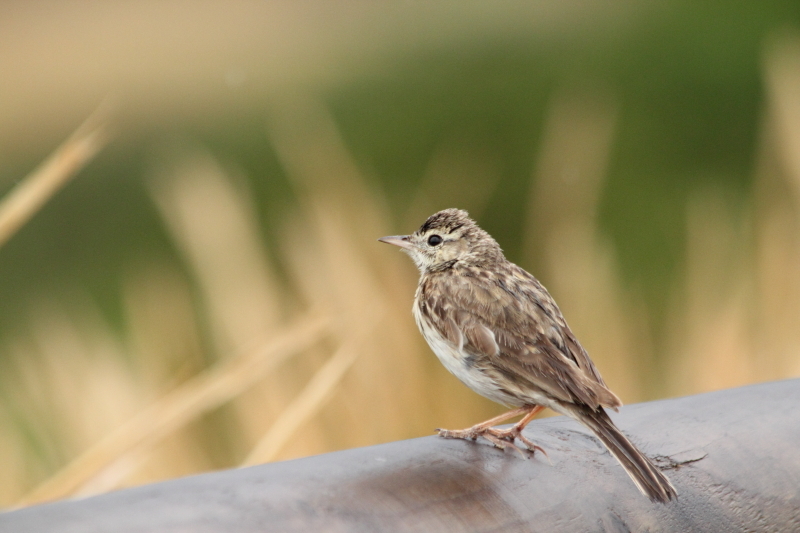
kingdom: Animalia
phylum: Chordata
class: Aves
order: Passeriformes
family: Alaudidae
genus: Alauda
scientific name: Alauda arvensis
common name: Eurasian skylark
